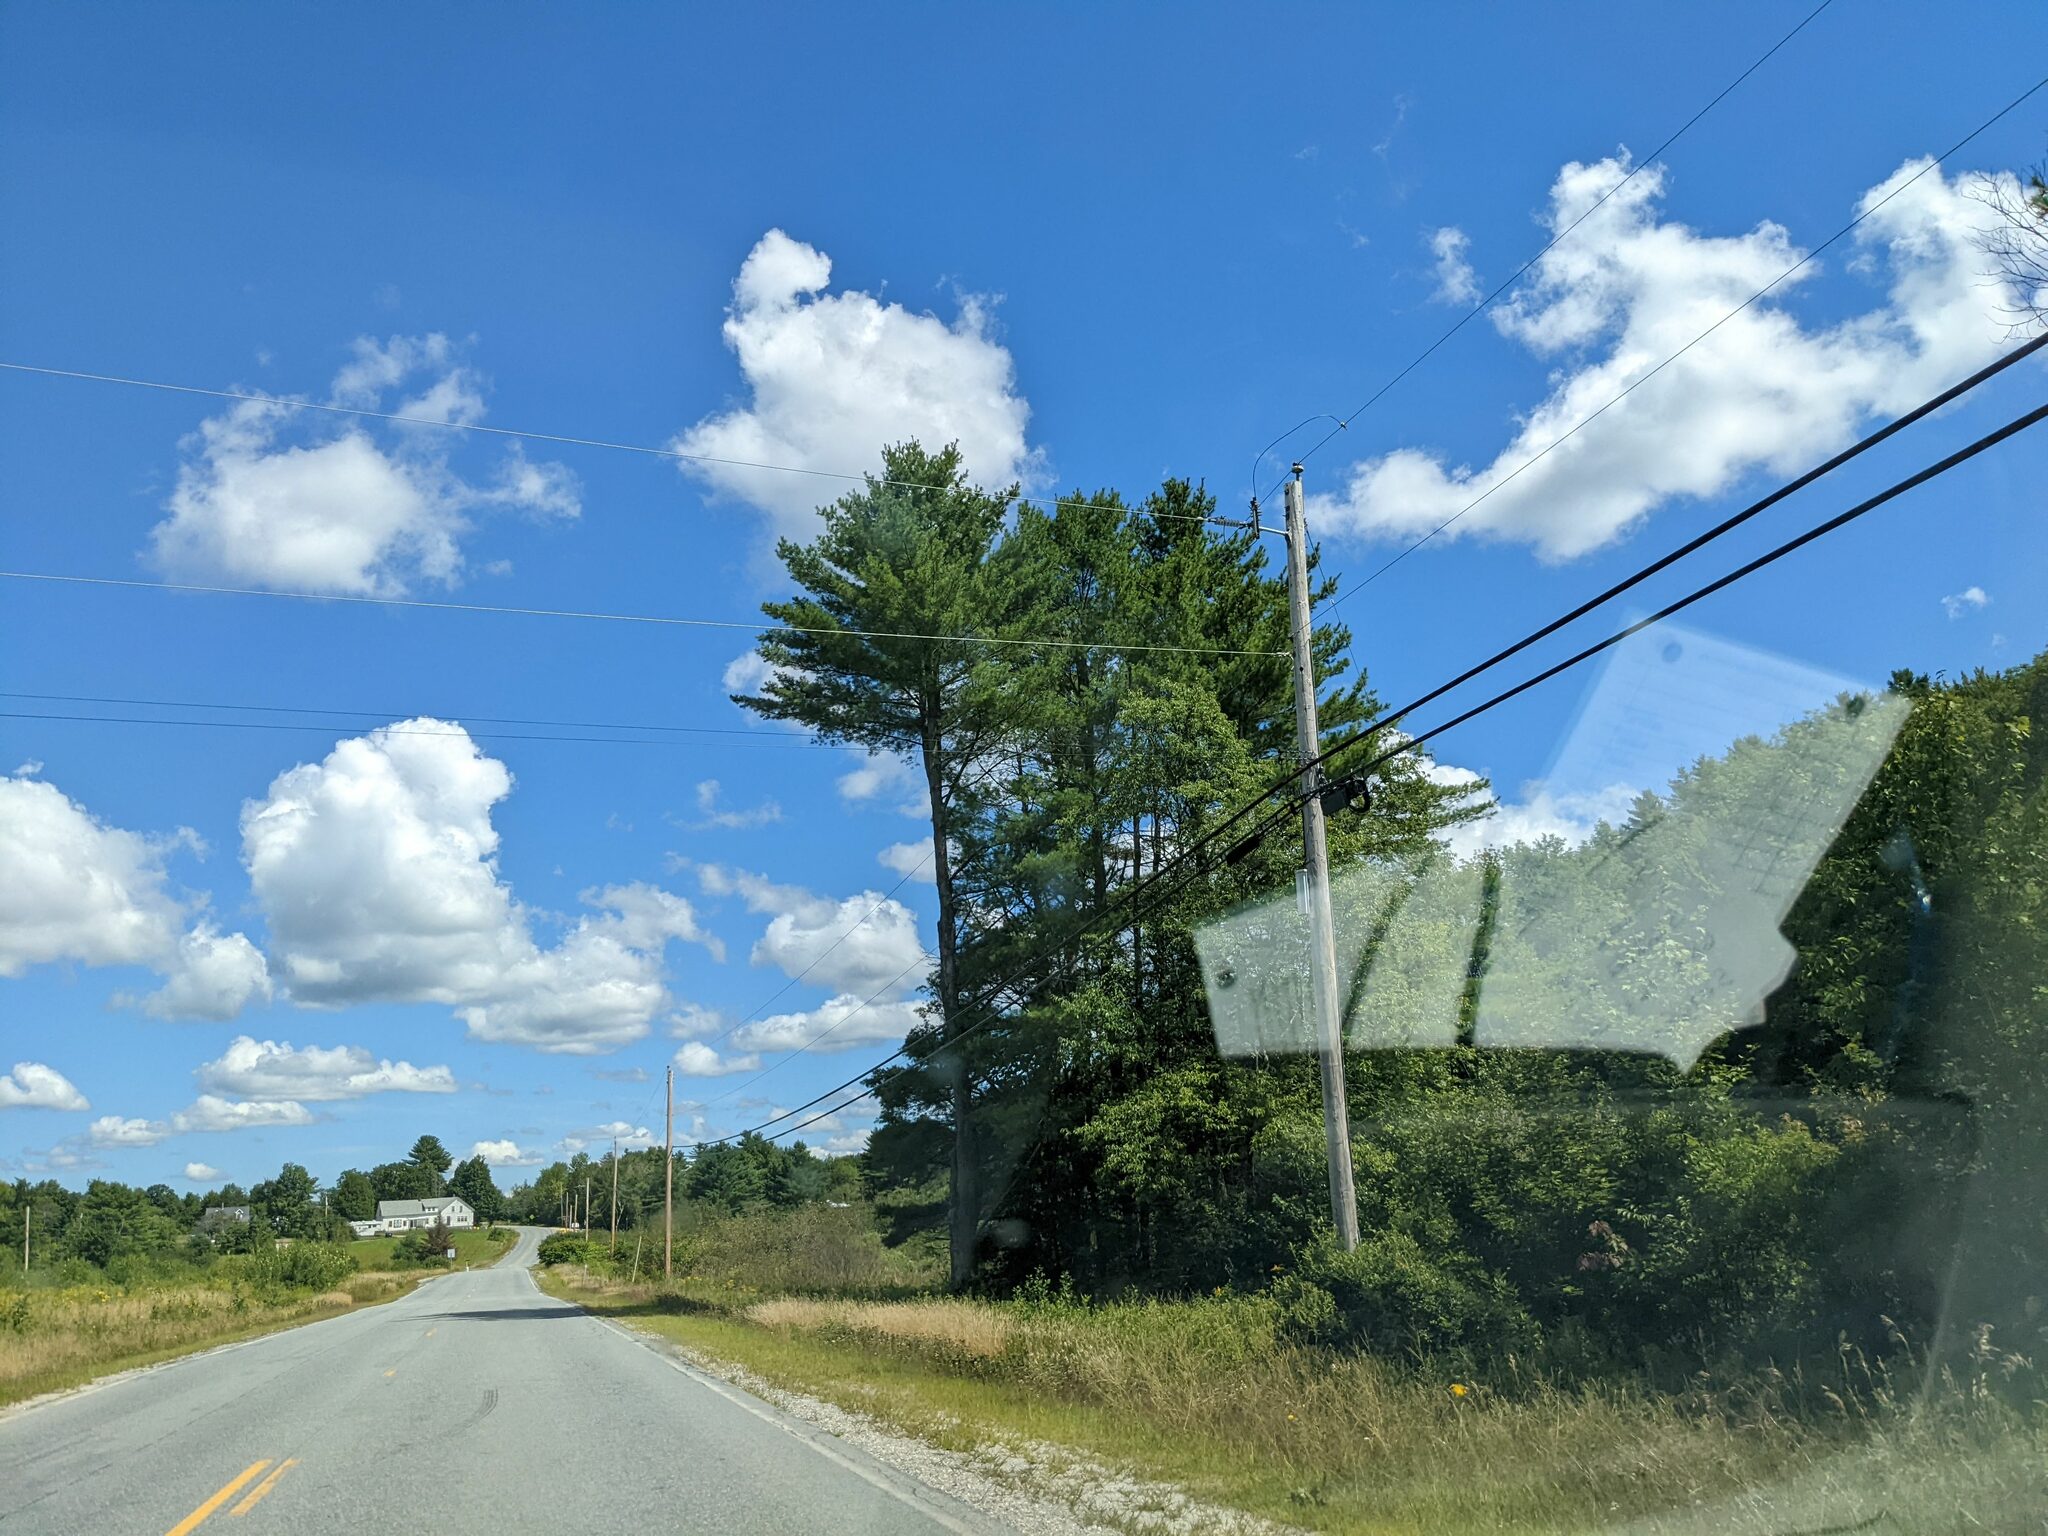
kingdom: Plantae
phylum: Tracheophyta
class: Pinopsida
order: Pinales
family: Pinaceae
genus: Pinus
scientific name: Pinus strobus
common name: Weymouth pine
